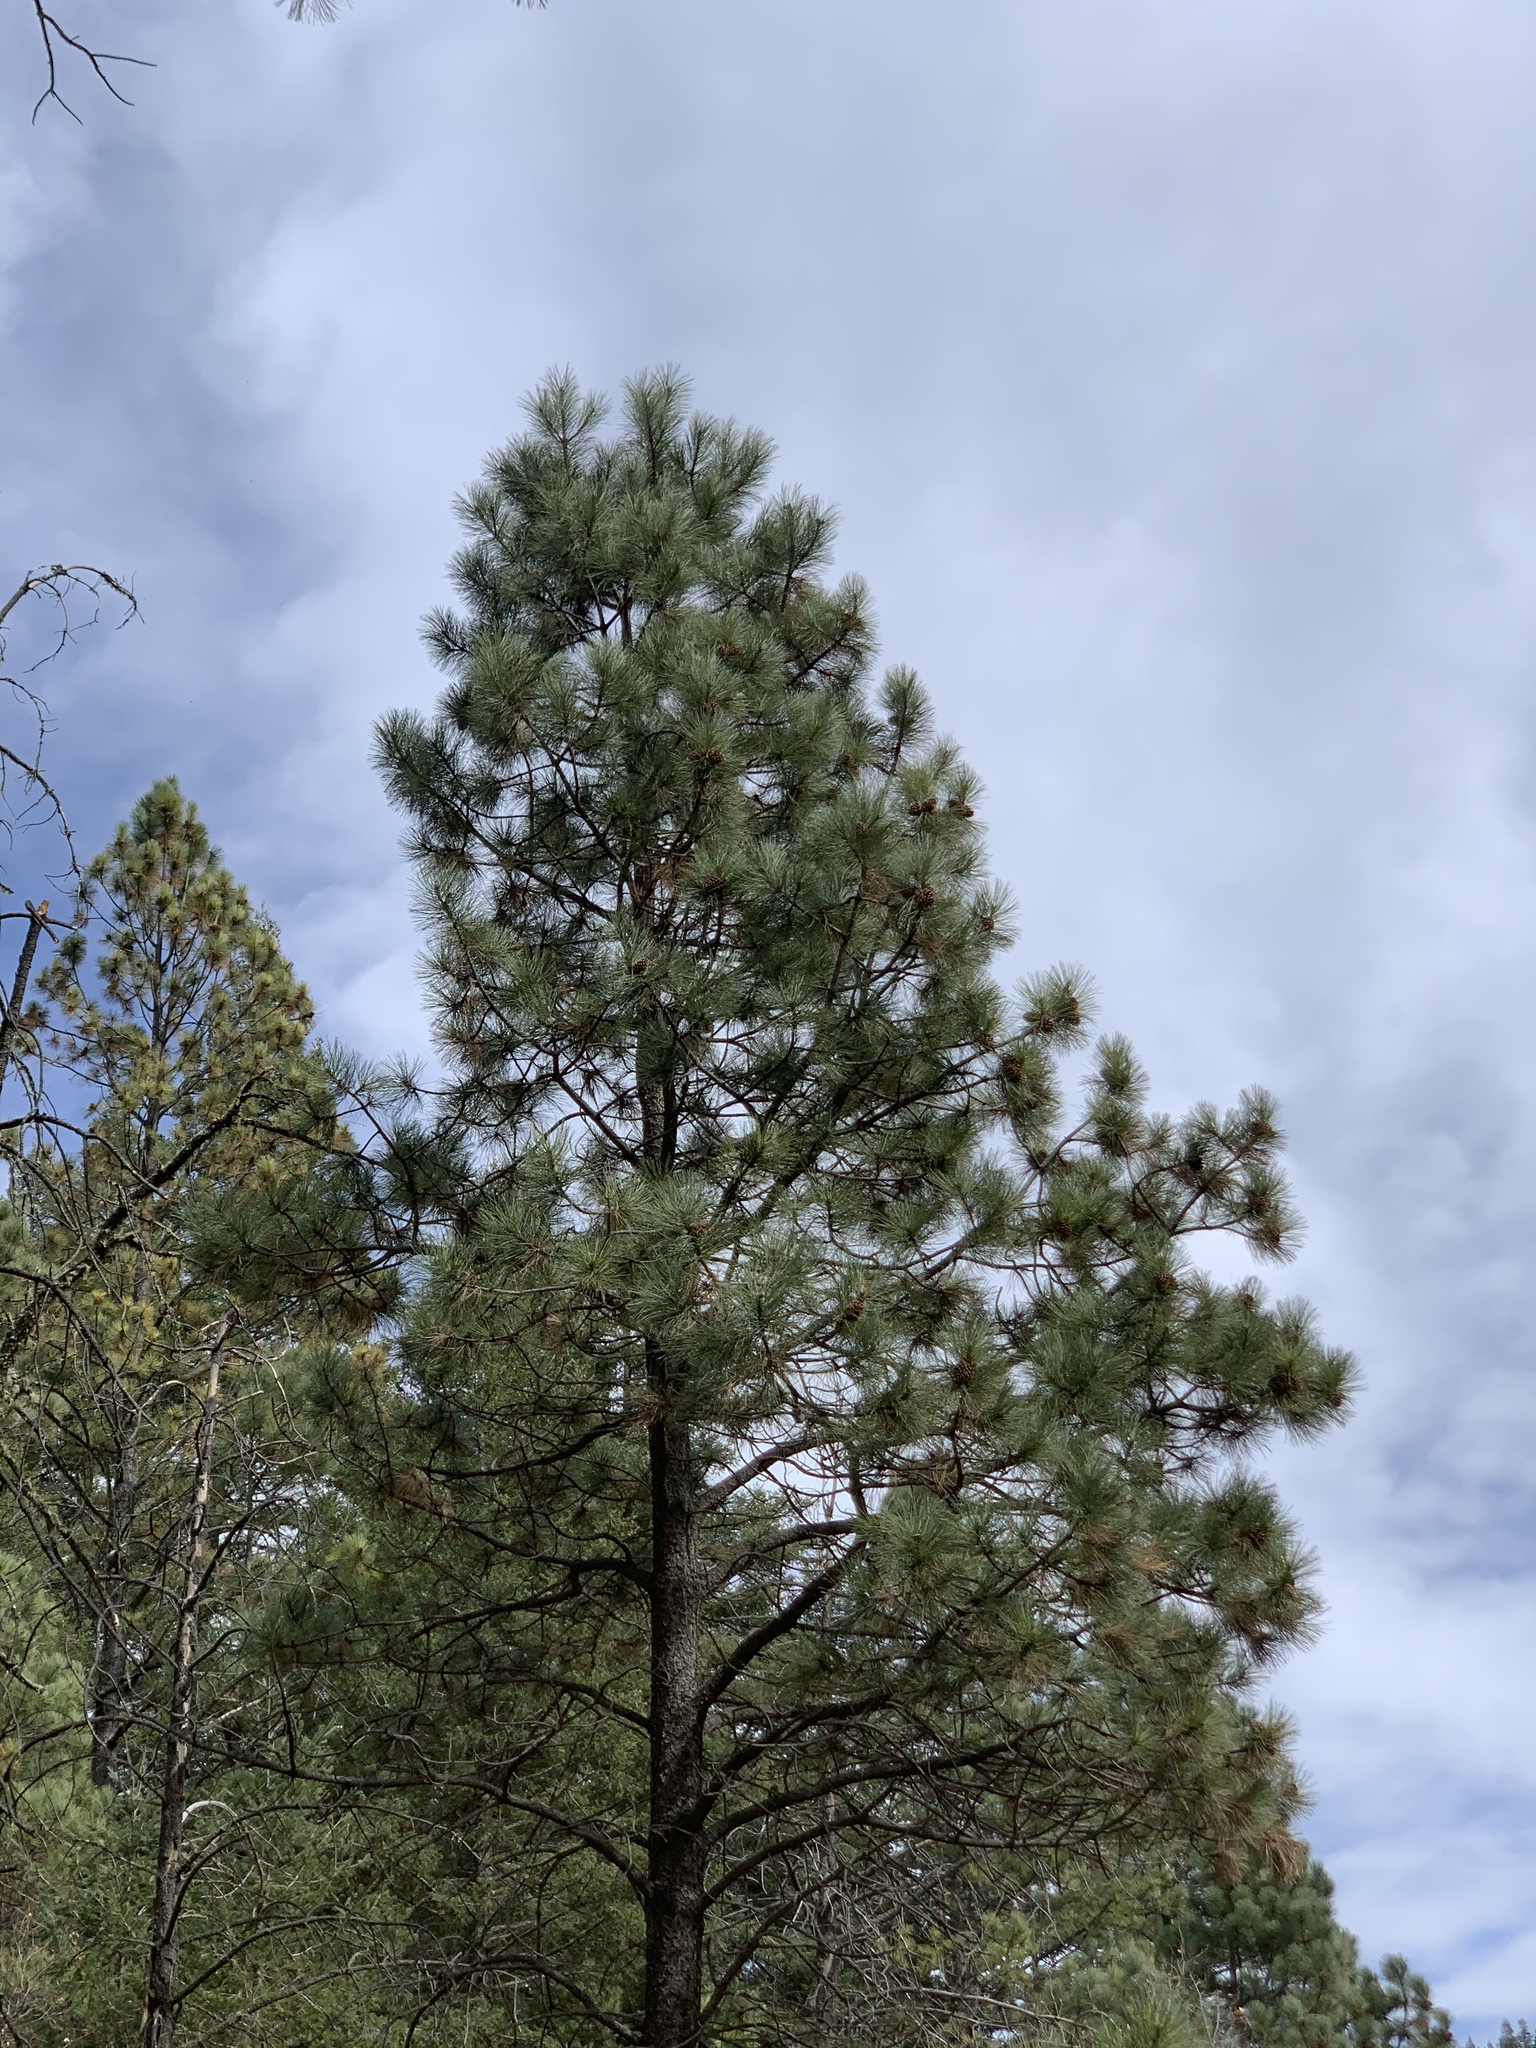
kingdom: Plantae
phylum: Tracheophyta
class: Pinopsida
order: Pinales
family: Pinaceae
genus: Pinus
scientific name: Pinus ponderosa
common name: Western yellow-pine
